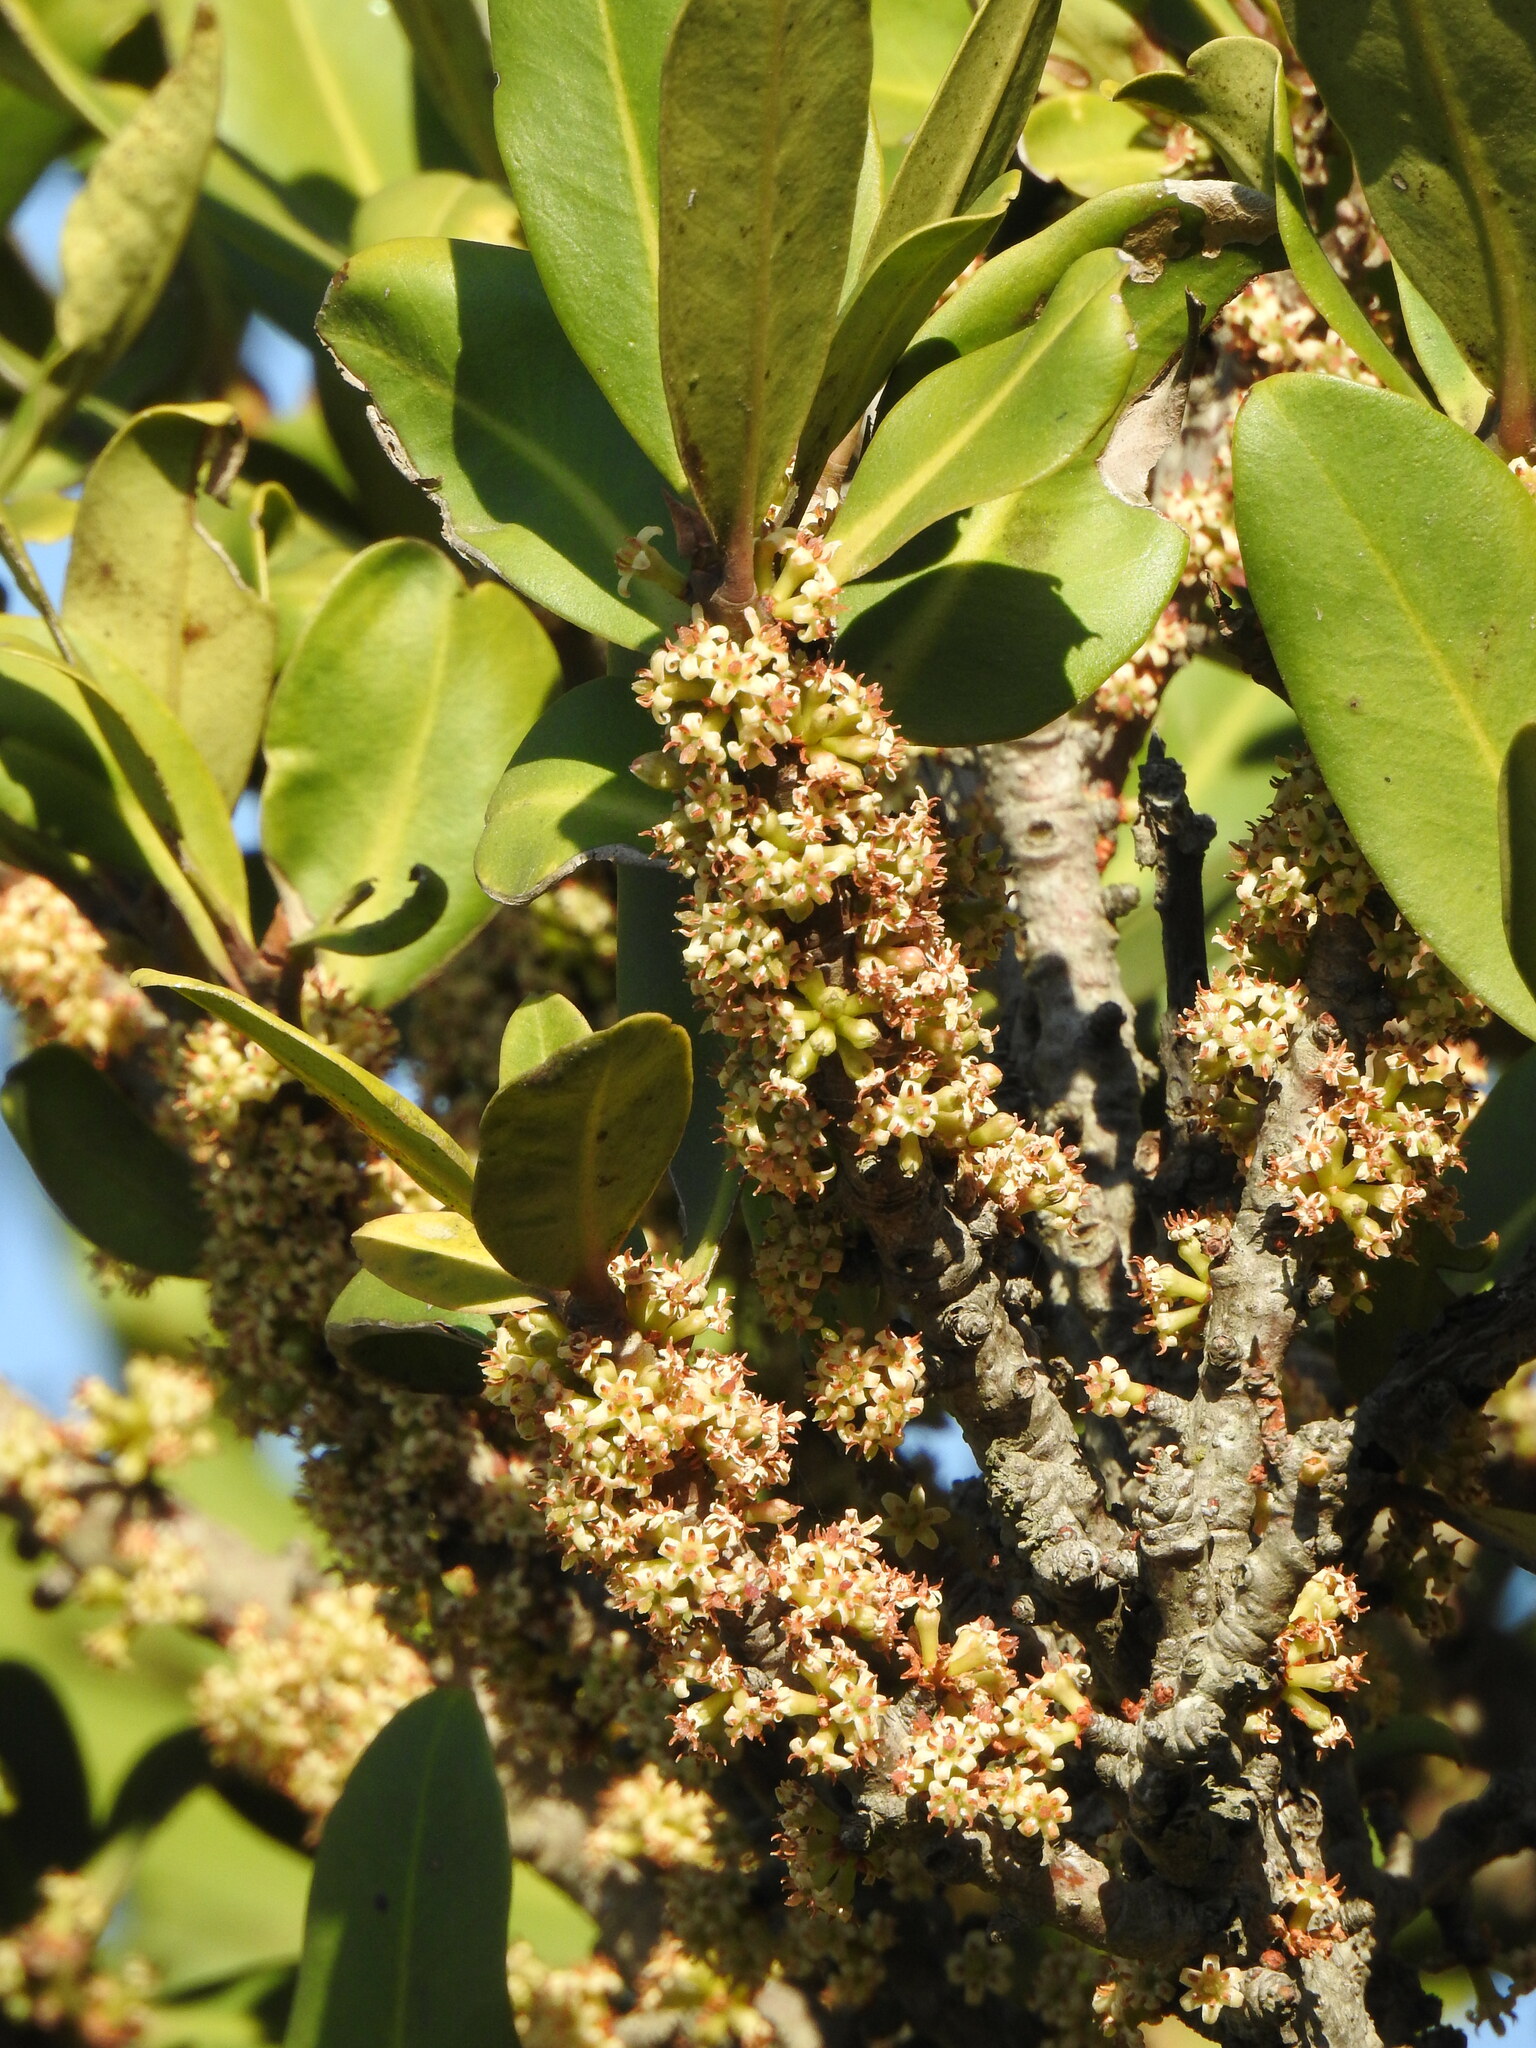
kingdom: Plantae
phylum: Tracheophyta
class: Magnoliopsida
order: Ericales
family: Primulaceae
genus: Myrsine
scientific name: Myrsine melanophloeos
